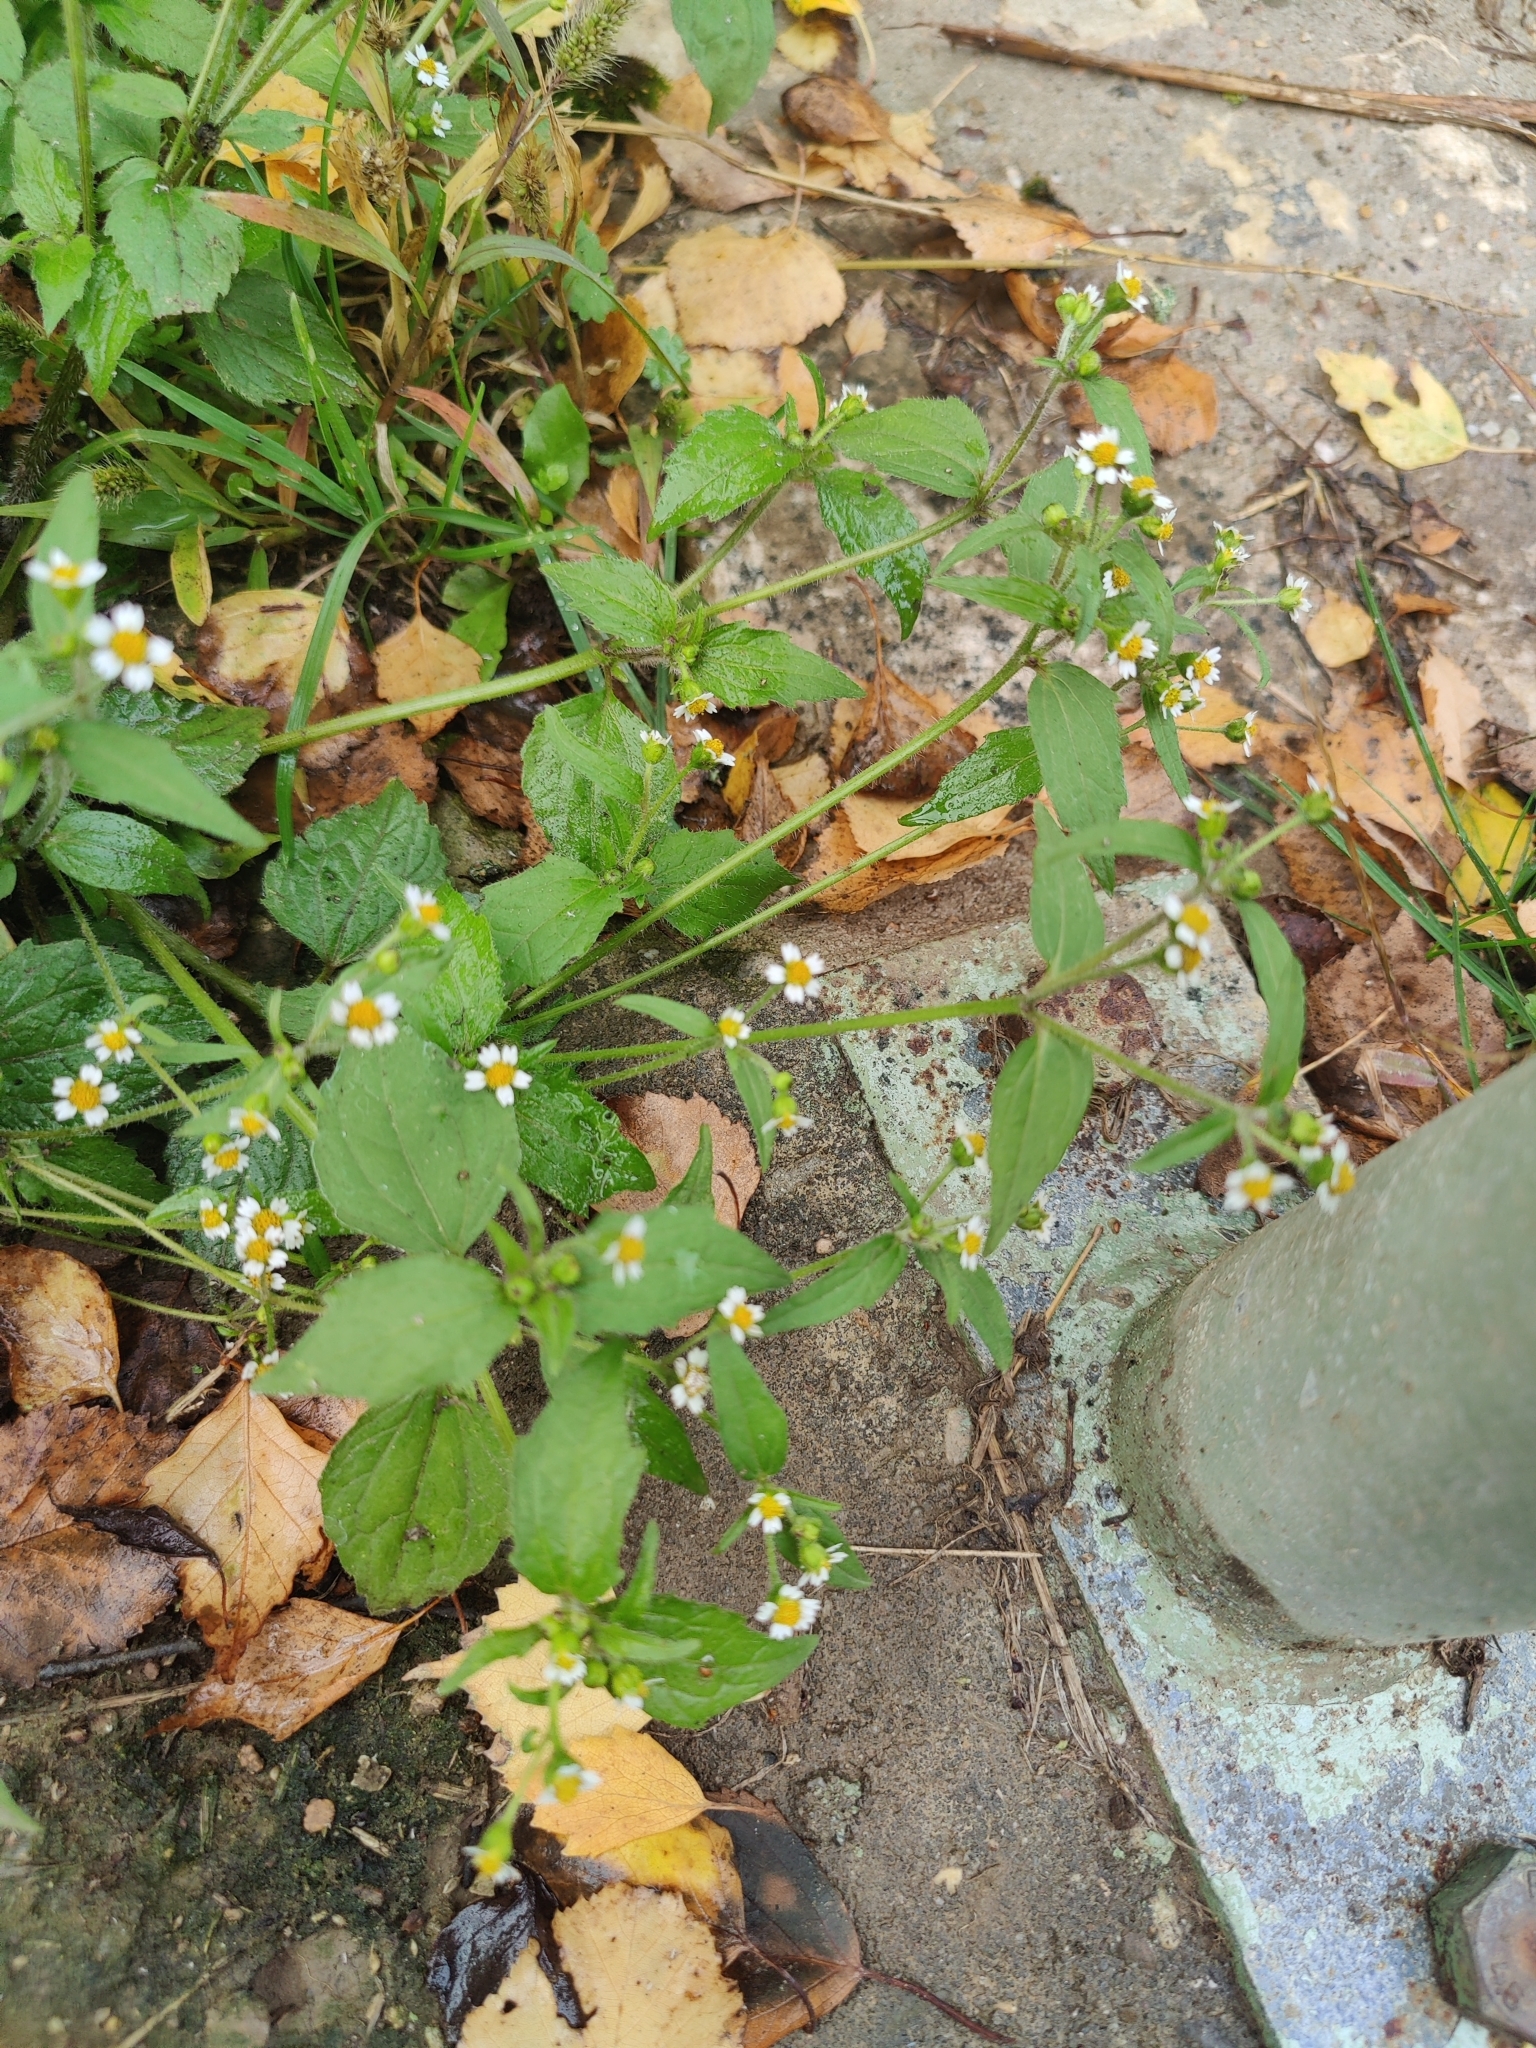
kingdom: Plantae
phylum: Tracheophyta
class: Magnoliopsida
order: Asterales
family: Asteraceae
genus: Galinsoga
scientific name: Galinsoga quadriradiata
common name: Shaggy soldier
